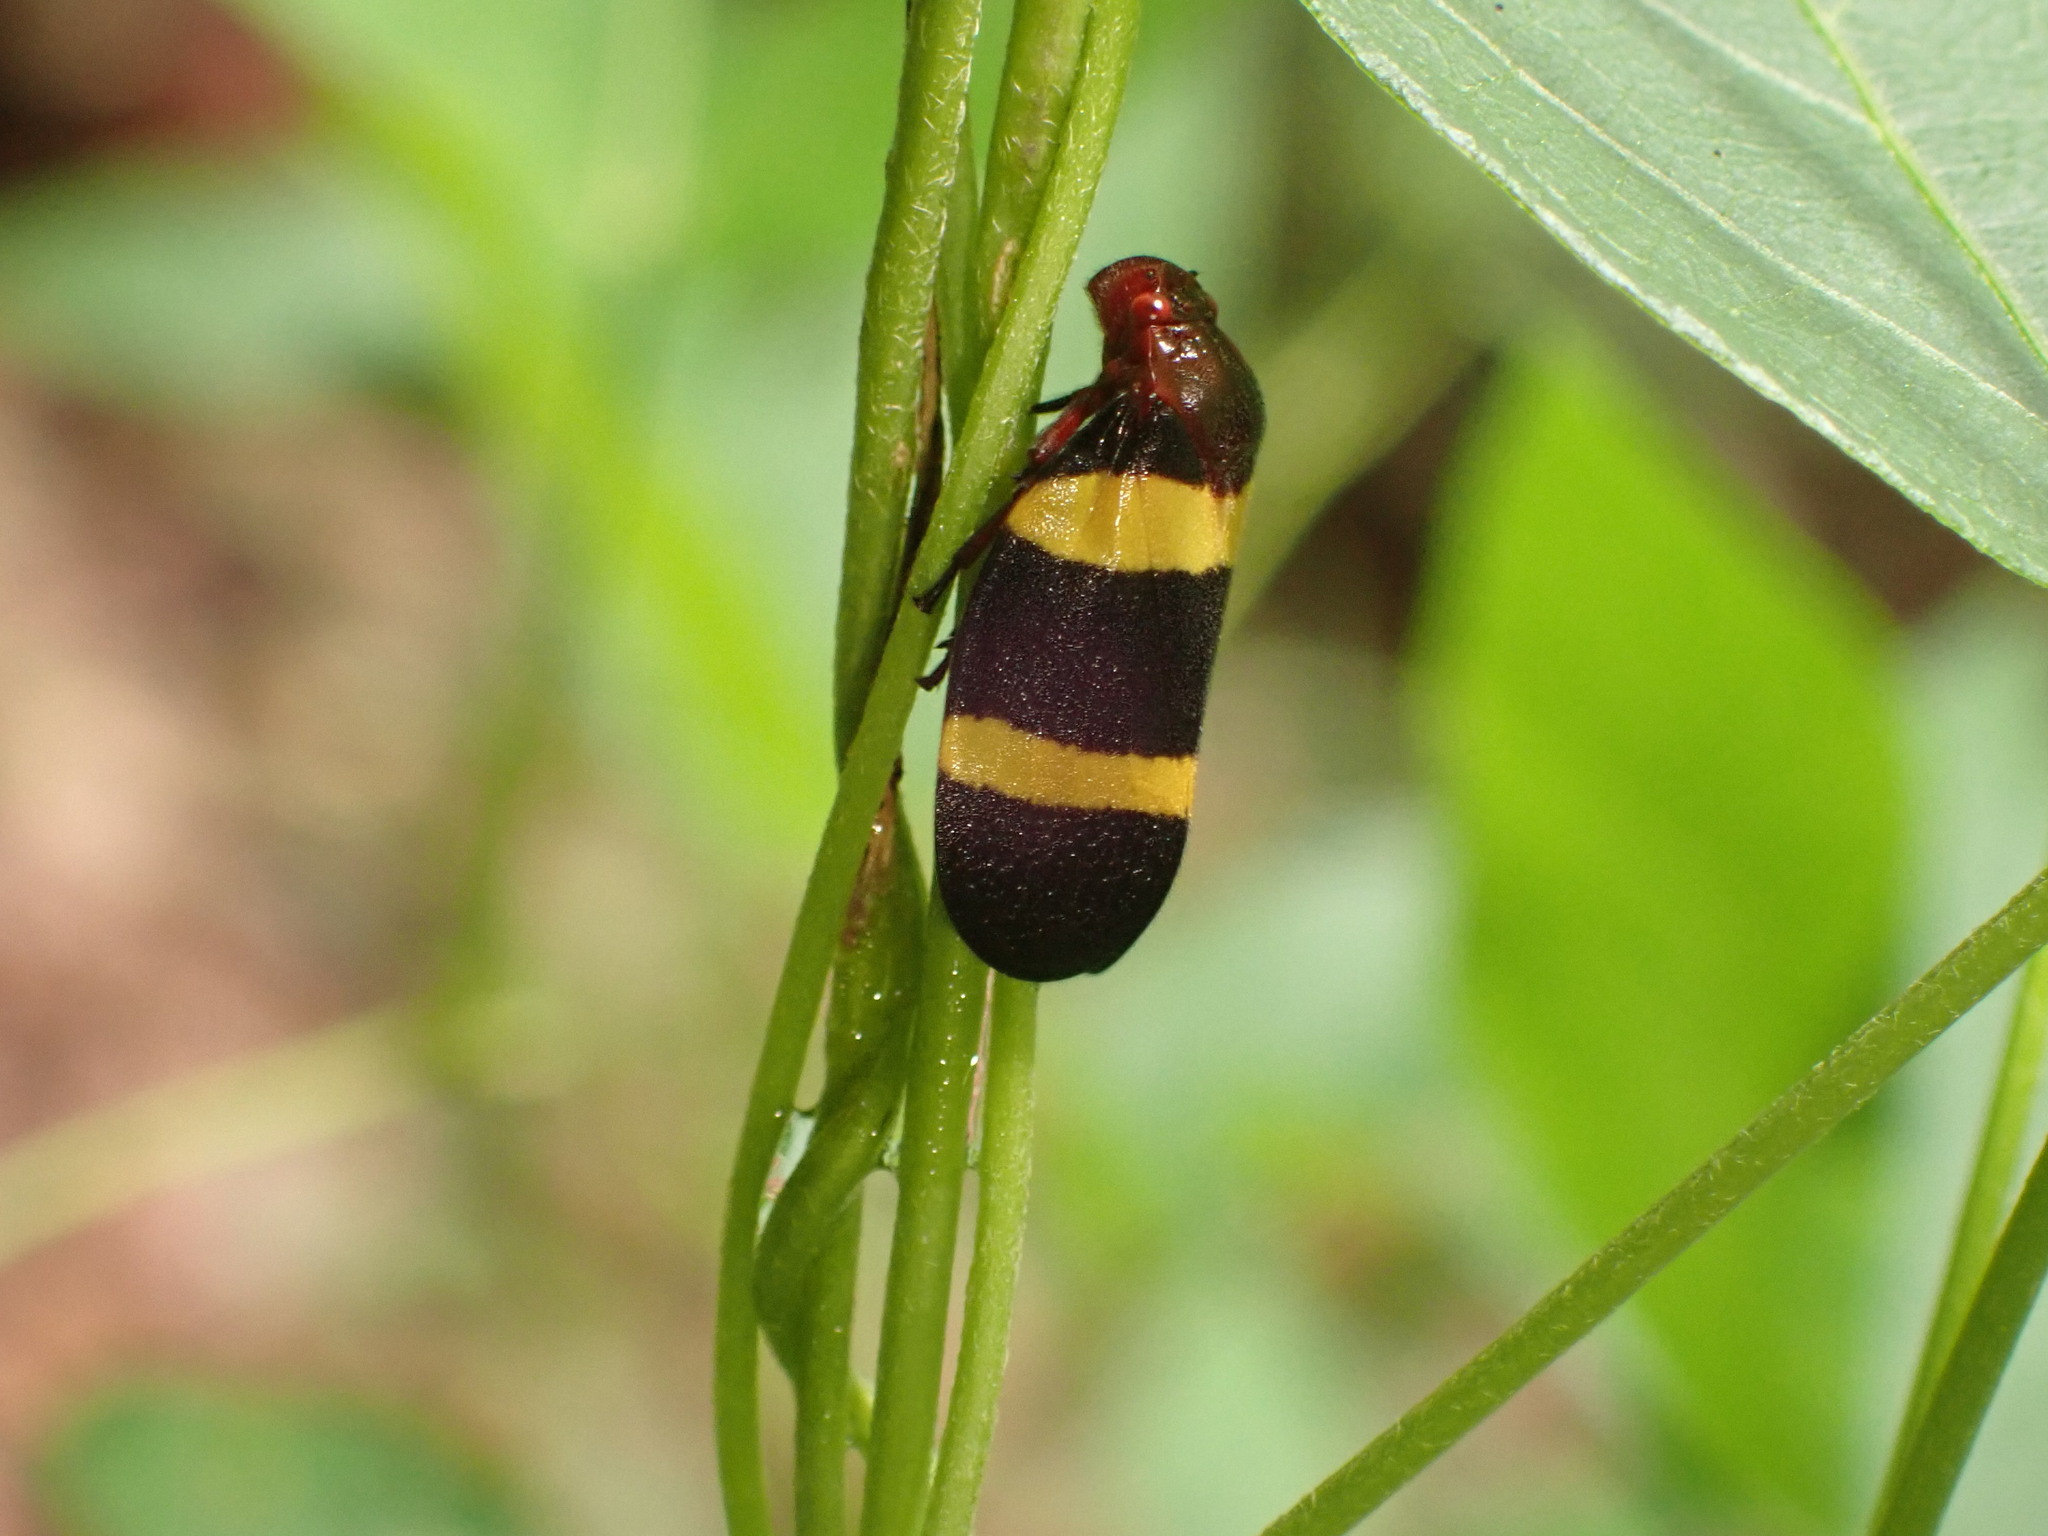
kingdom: Animalia
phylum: Arthropoda
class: Insecta
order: Hemiptera
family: Cercopidae
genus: Sphenorhina
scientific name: Sphenorhina rubra
